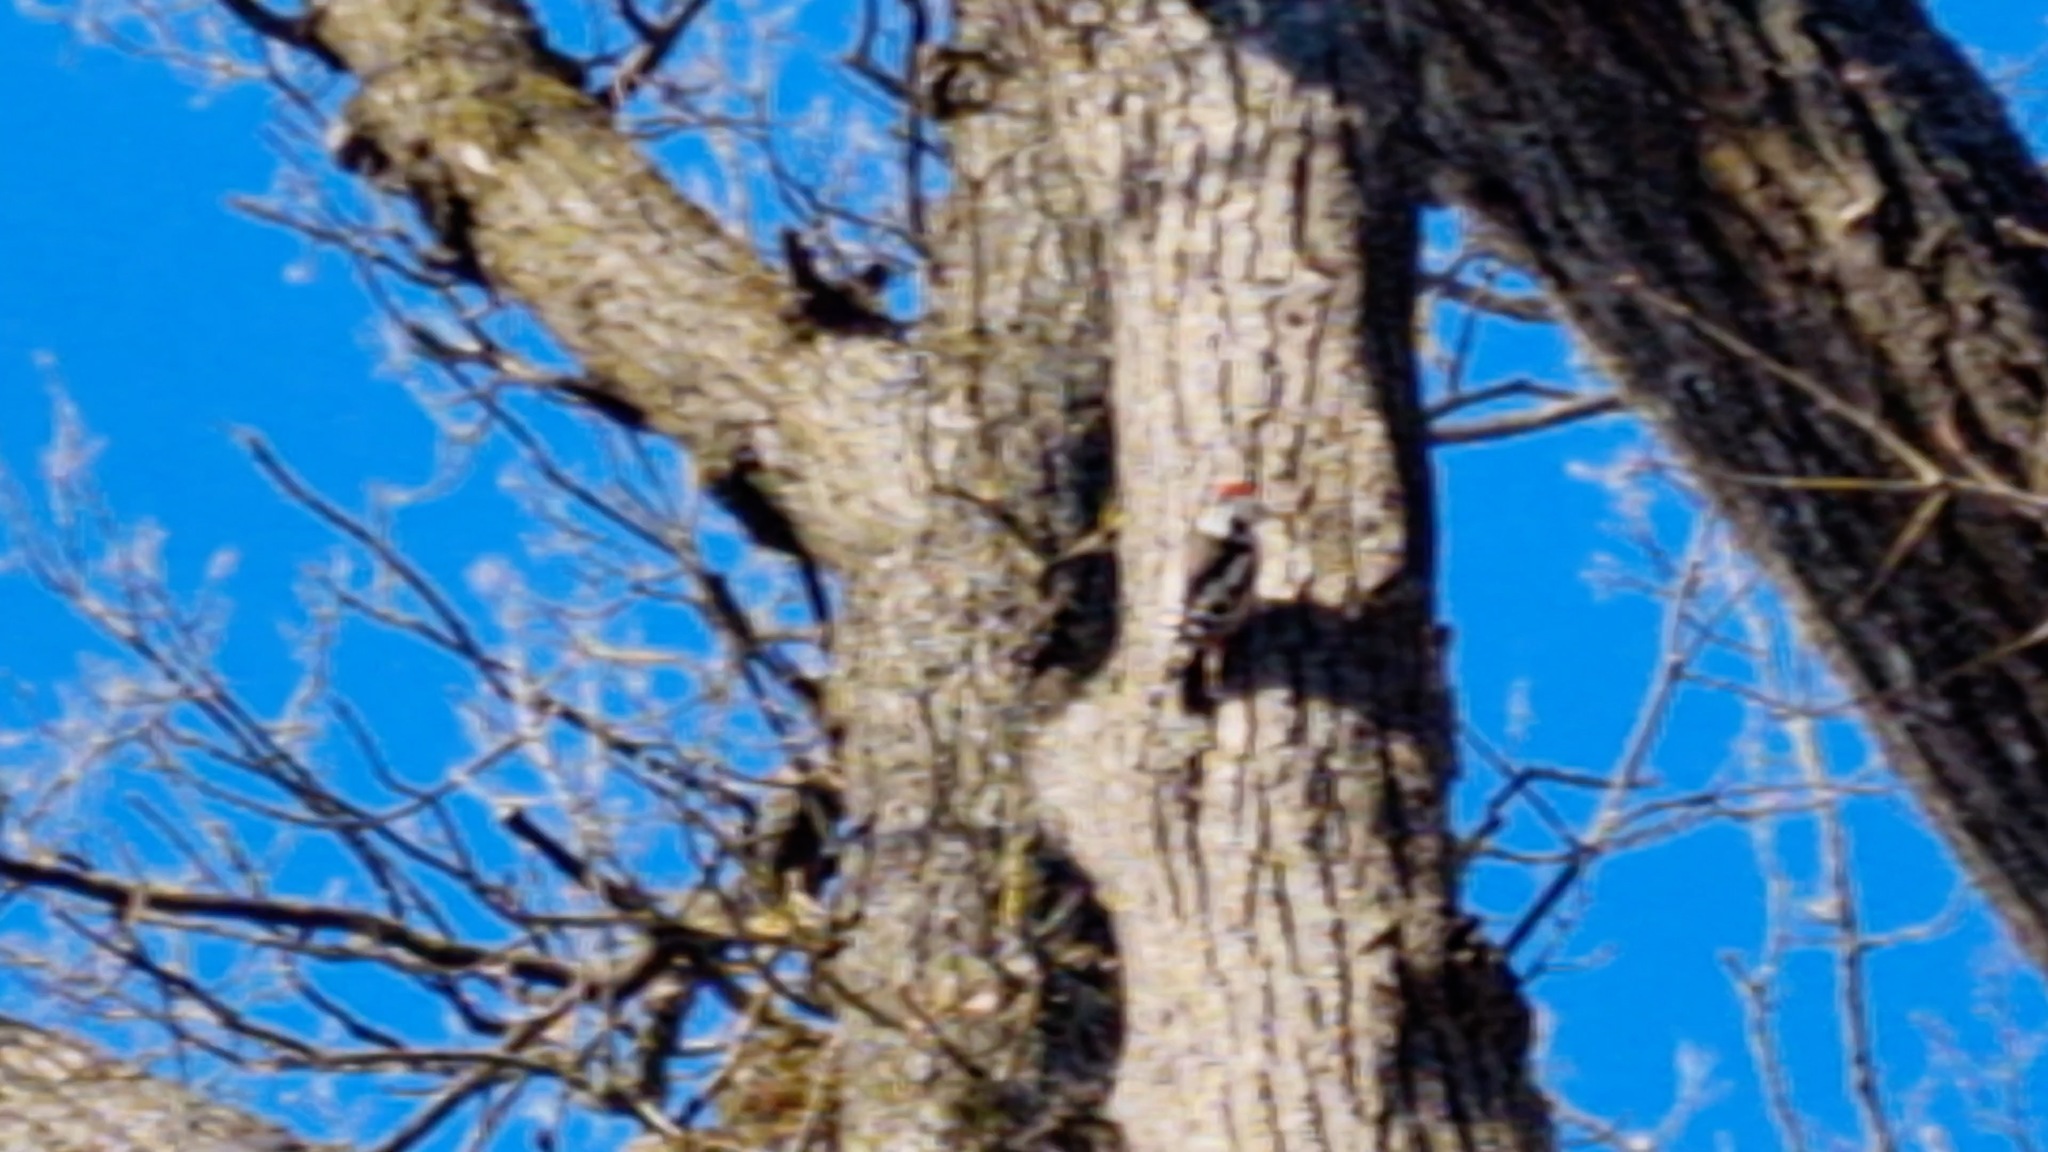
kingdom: Animalia
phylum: Chordata
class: Aves
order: Piciformes
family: Picidae
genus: Dendrocoptes
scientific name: Dendrocoptes medius
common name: Middle spotted woodpecker
